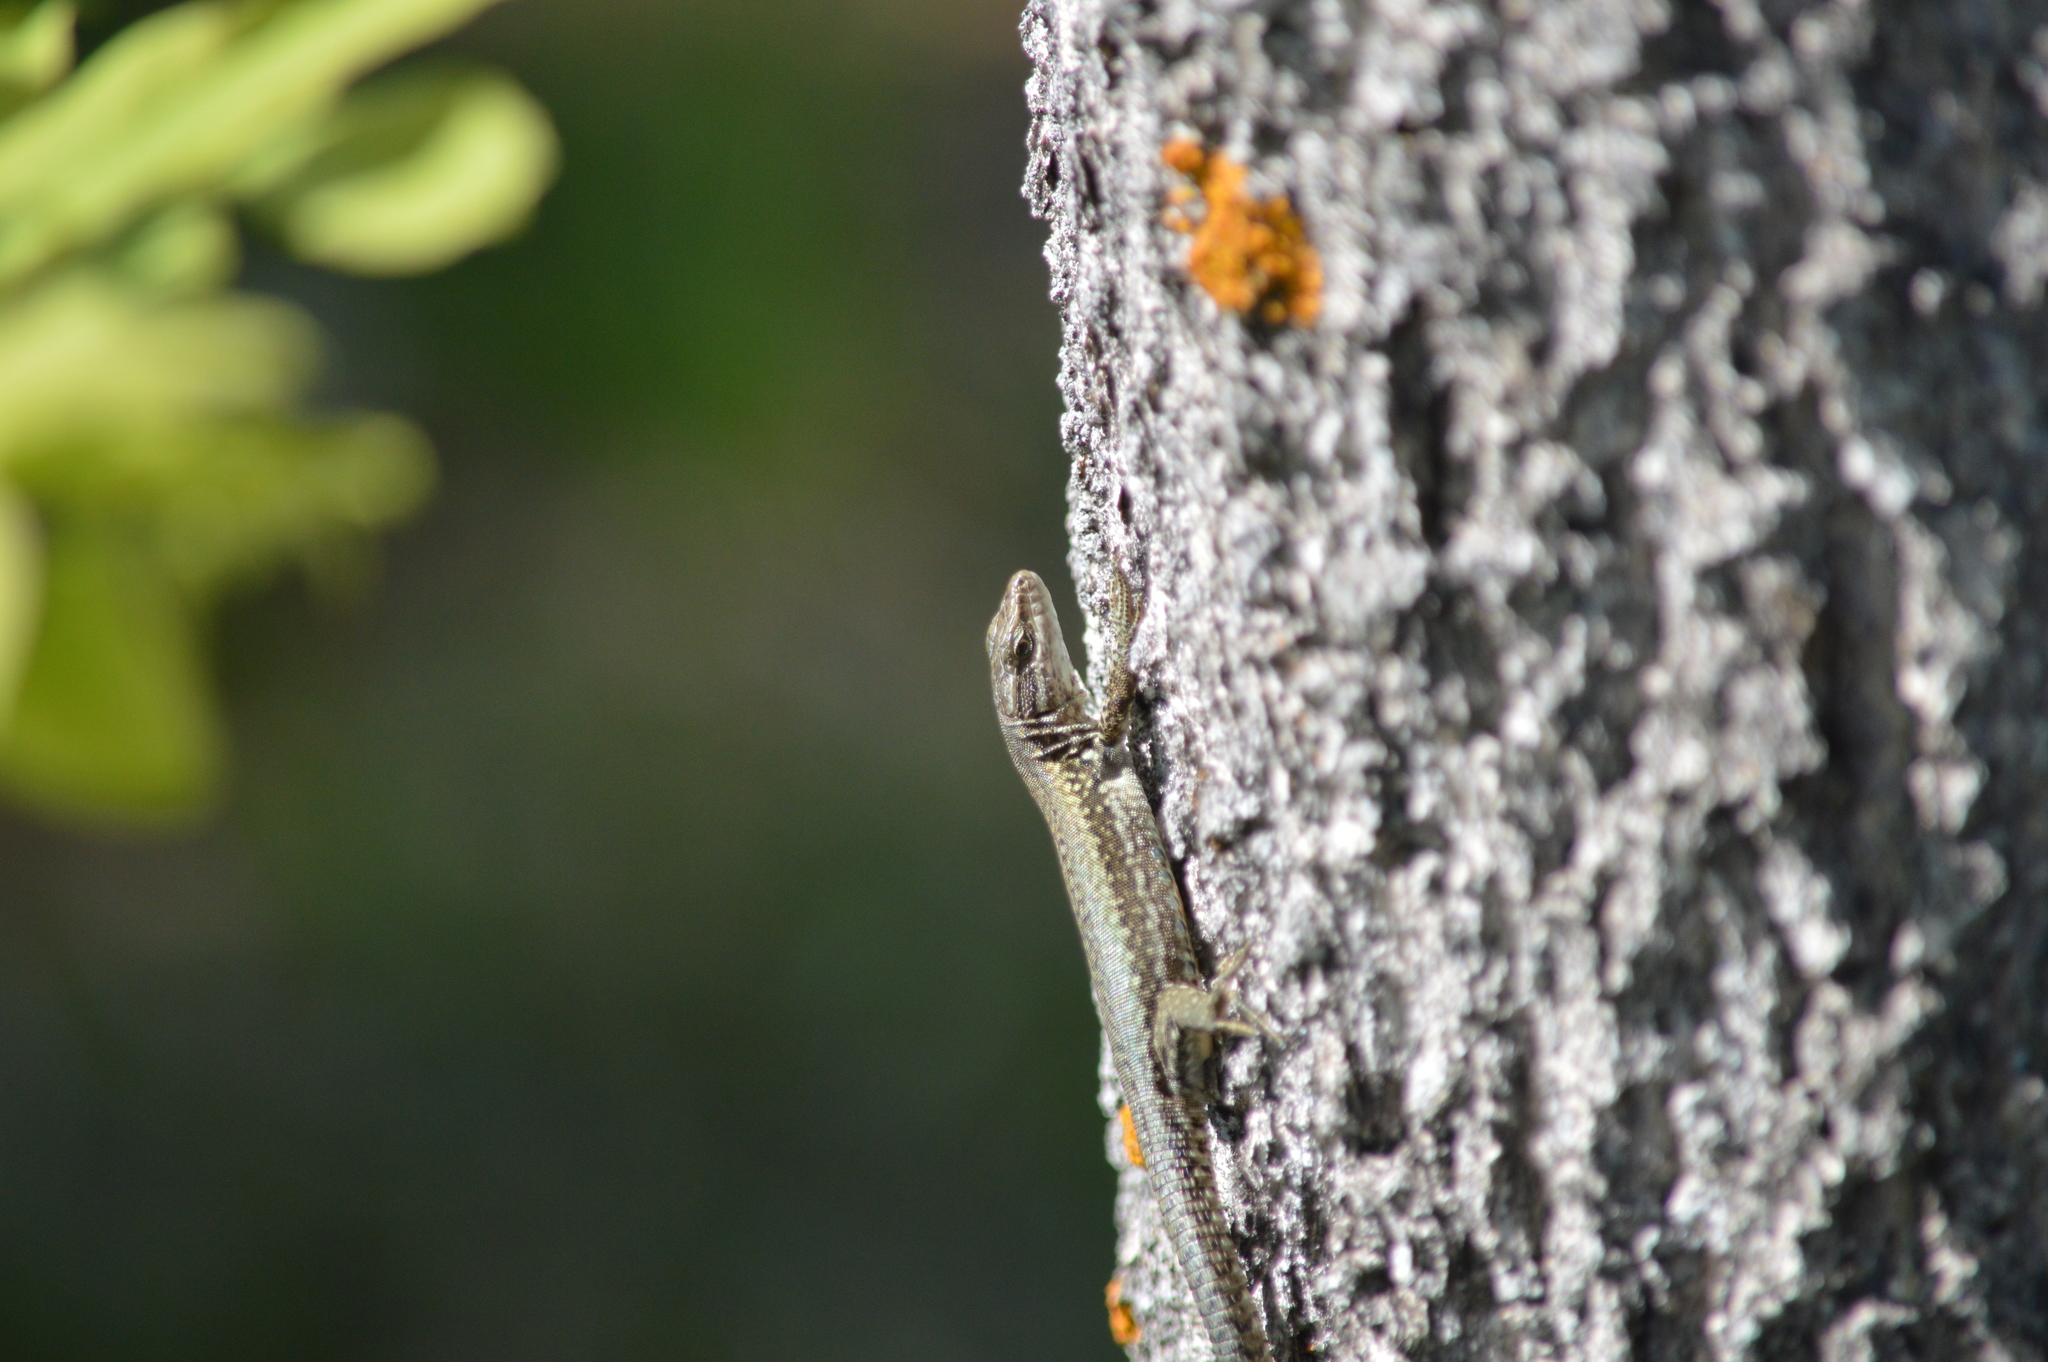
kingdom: Animalia
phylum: Chordata
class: Squamata
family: Lacertidae
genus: Podarcis
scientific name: Podarcis muralis
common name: Common wall lizard
